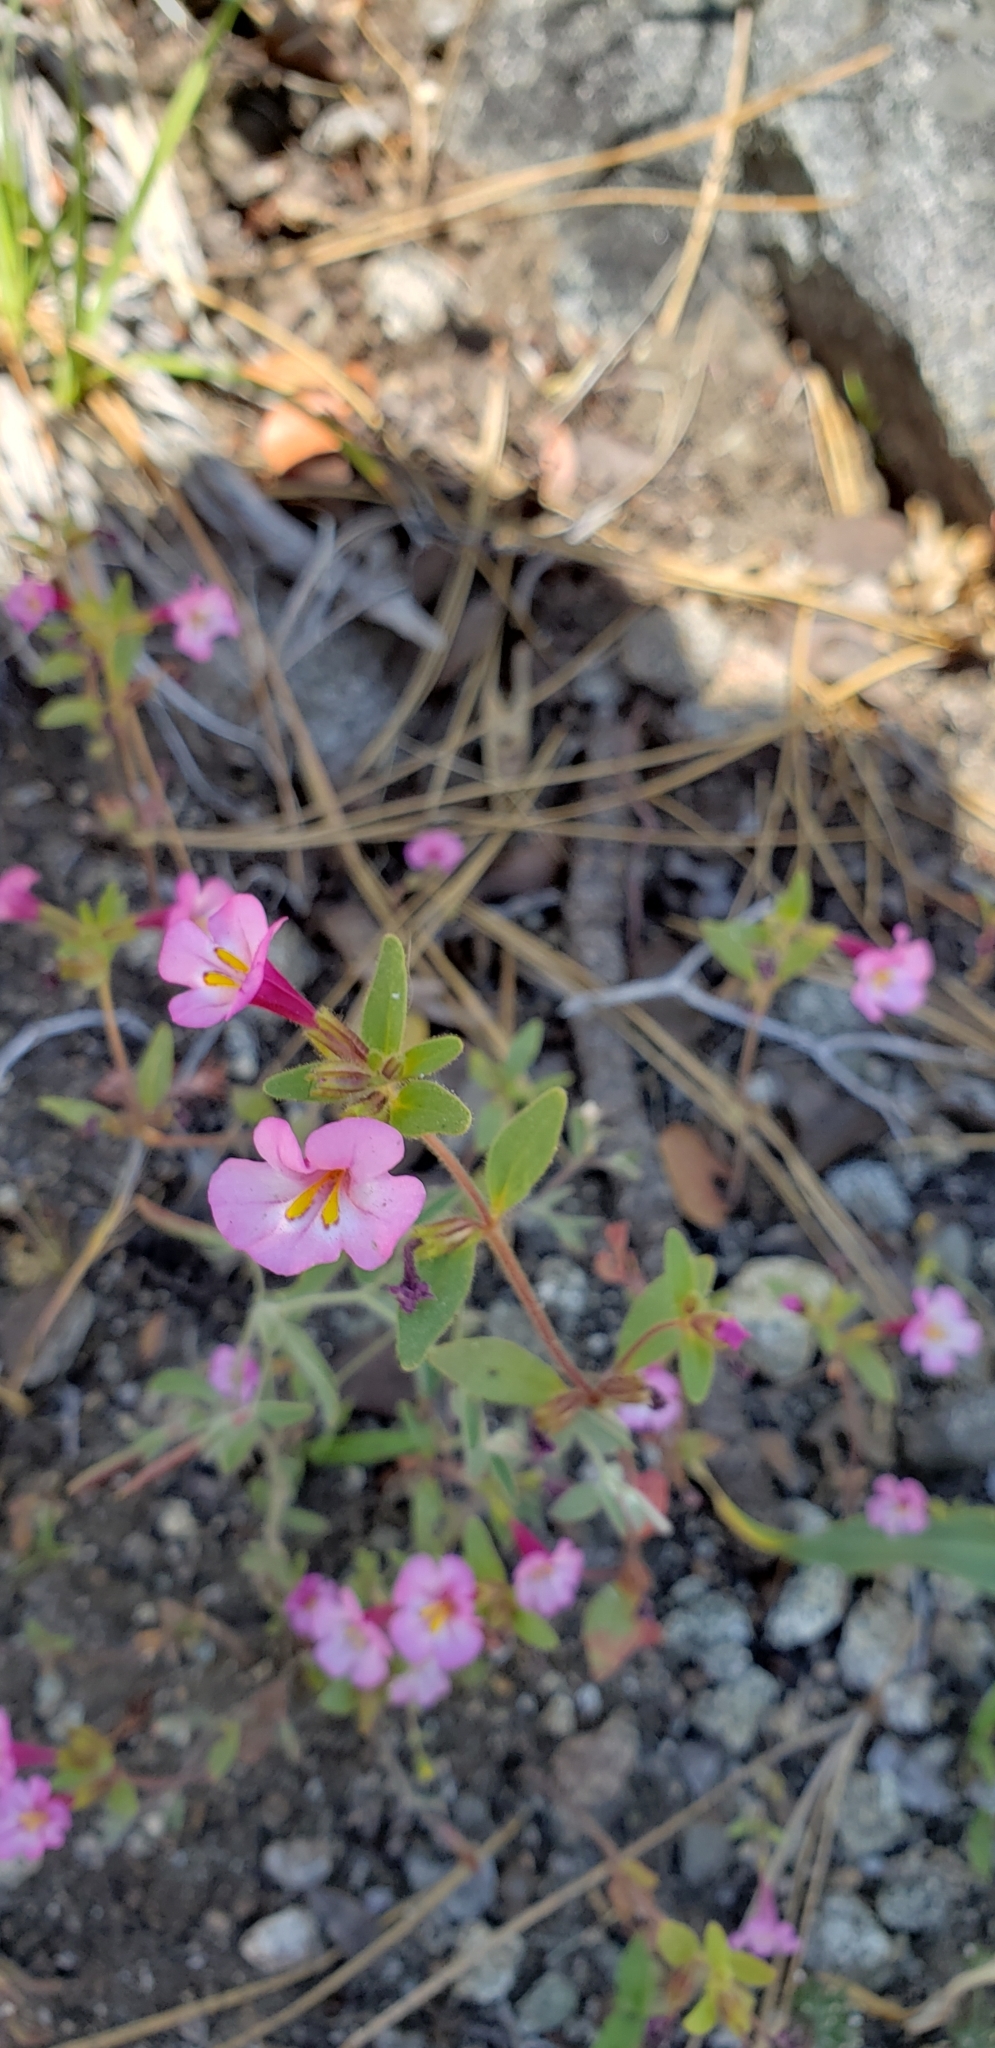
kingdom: Plantae
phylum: Tracheophyta
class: Magnoliopsida
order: Lamiales
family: Phrymaceae
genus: Diplacus
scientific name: Diplacus torreyi
